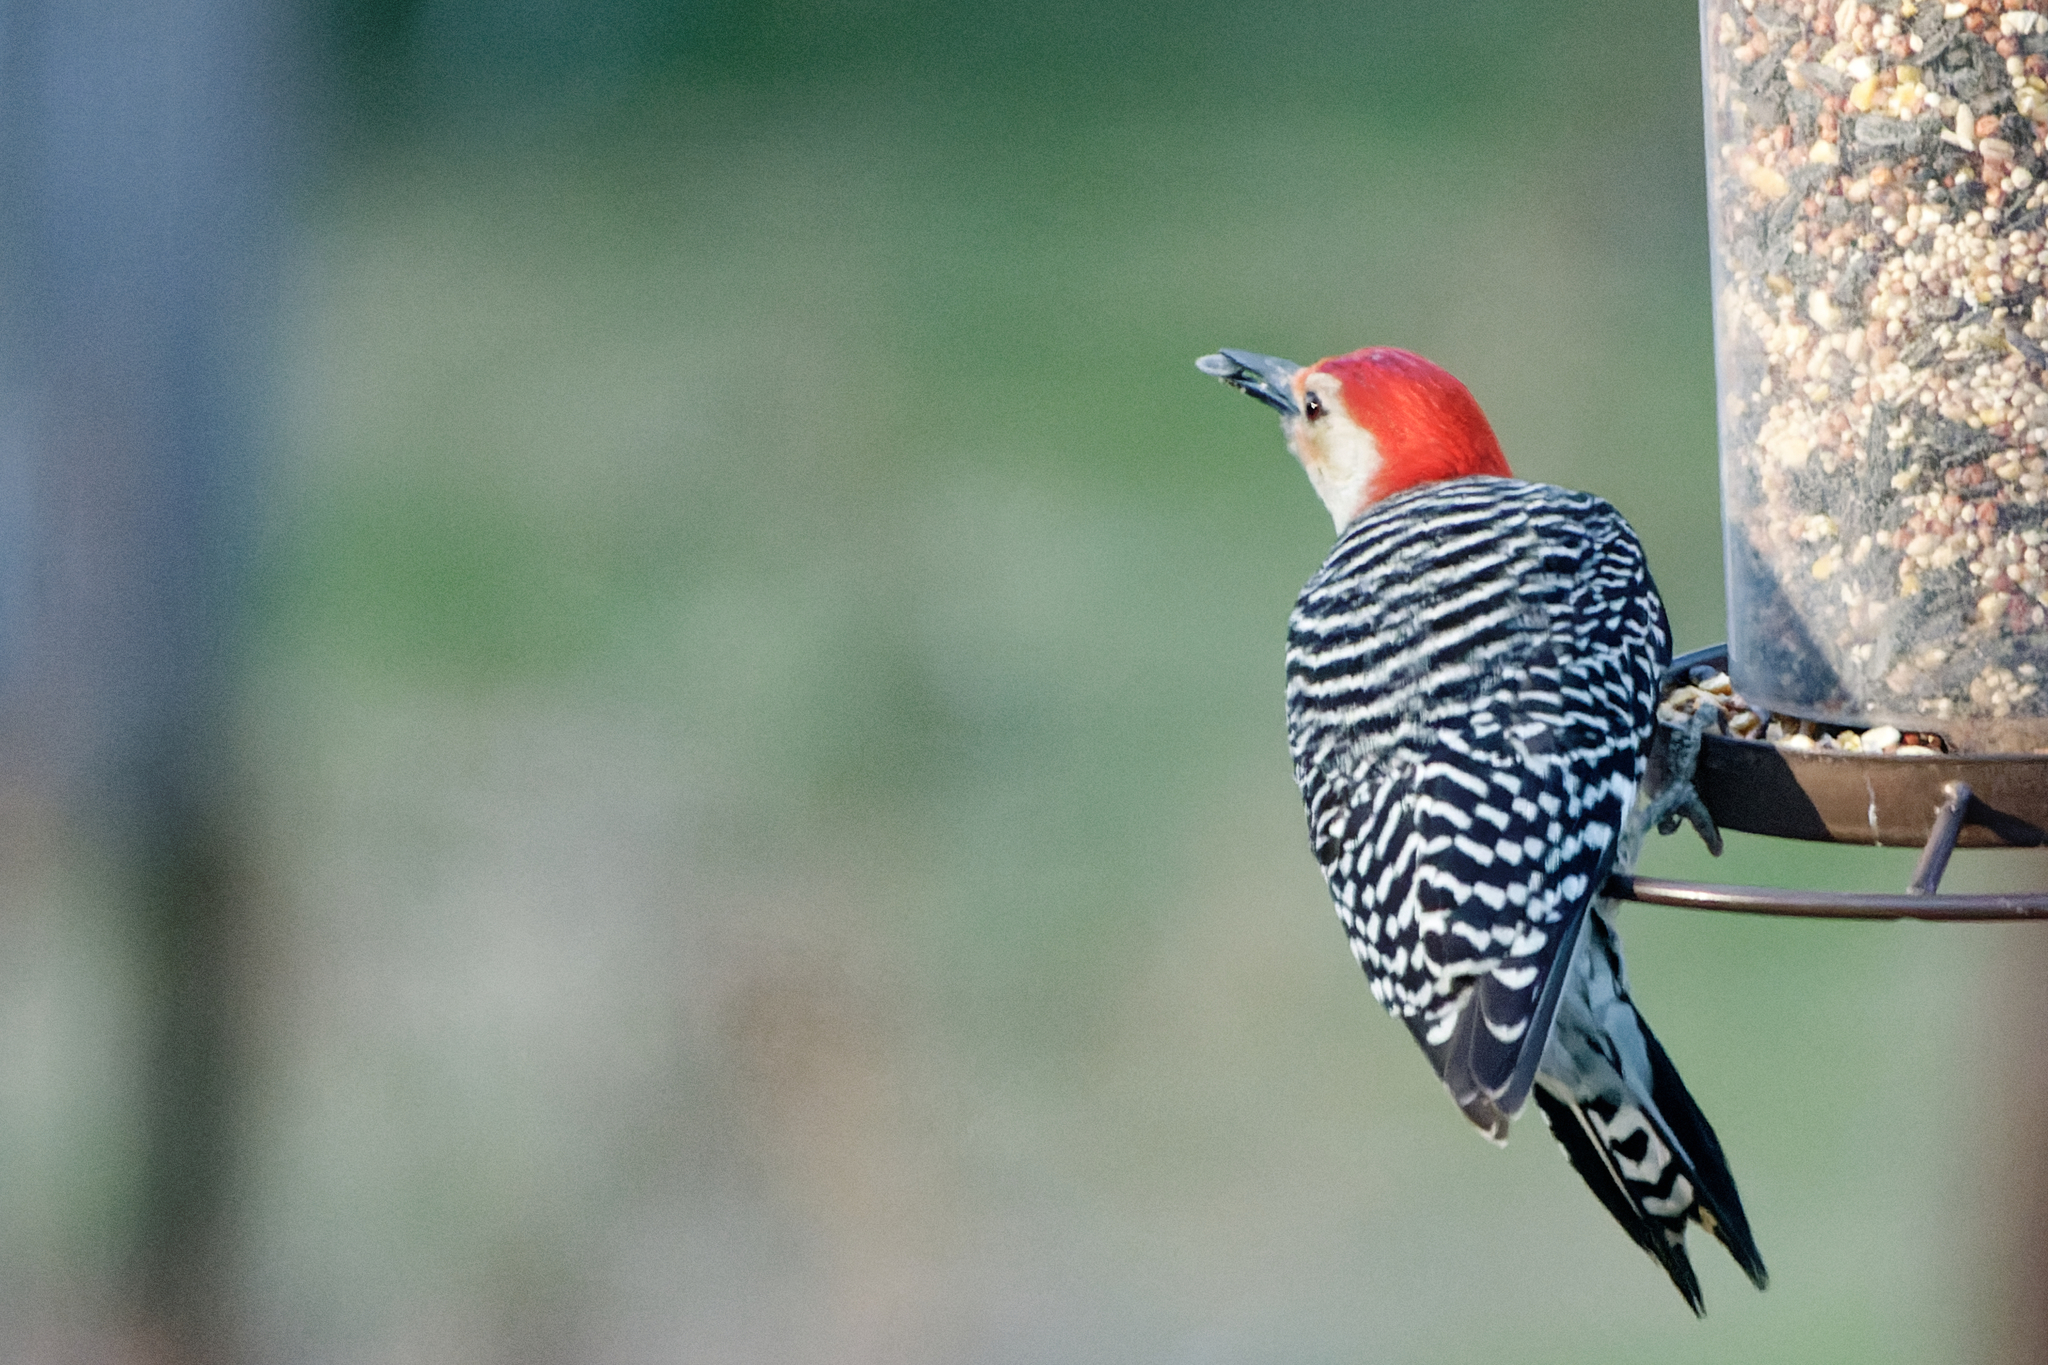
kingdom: Animalia
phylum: Chordata
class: Aves
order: Piciformes
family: Picidae
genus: Melanerpes
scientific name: Melanerpes carolinus
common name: Red-bellied woodpecker
